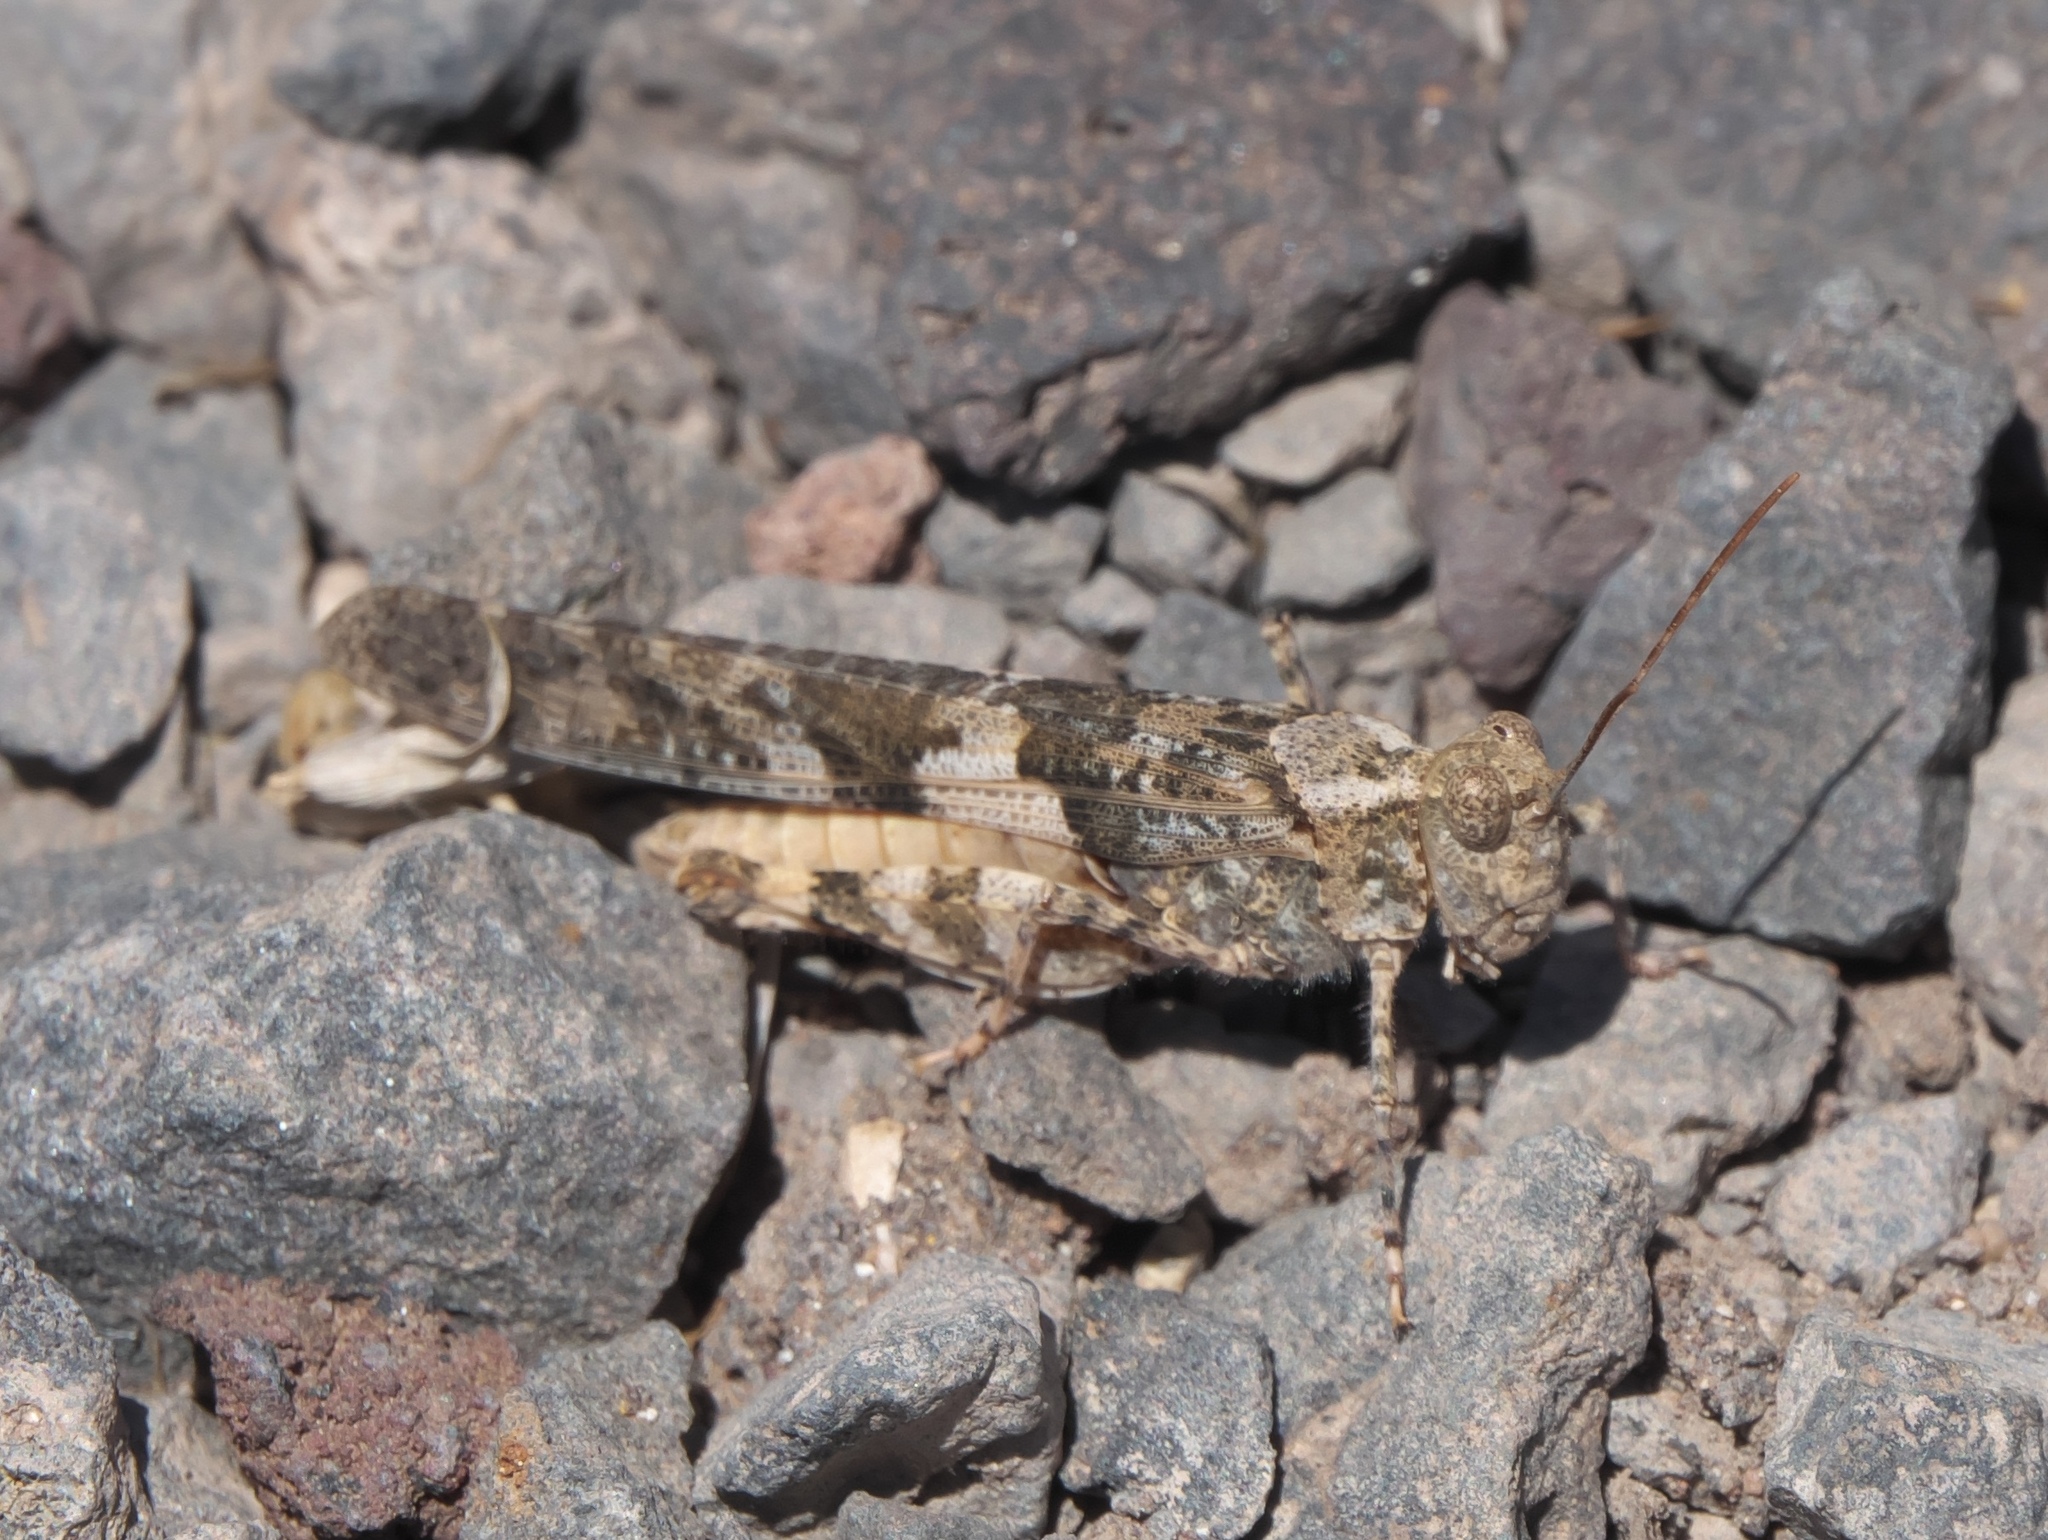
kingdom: Animalia
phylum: Arthropoda
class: Insecta
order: Orthoptera
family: Acrididae
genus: Trimerotropis
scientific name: Trimerotropis pallidipennis
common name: Pallid-winged grasshopper
